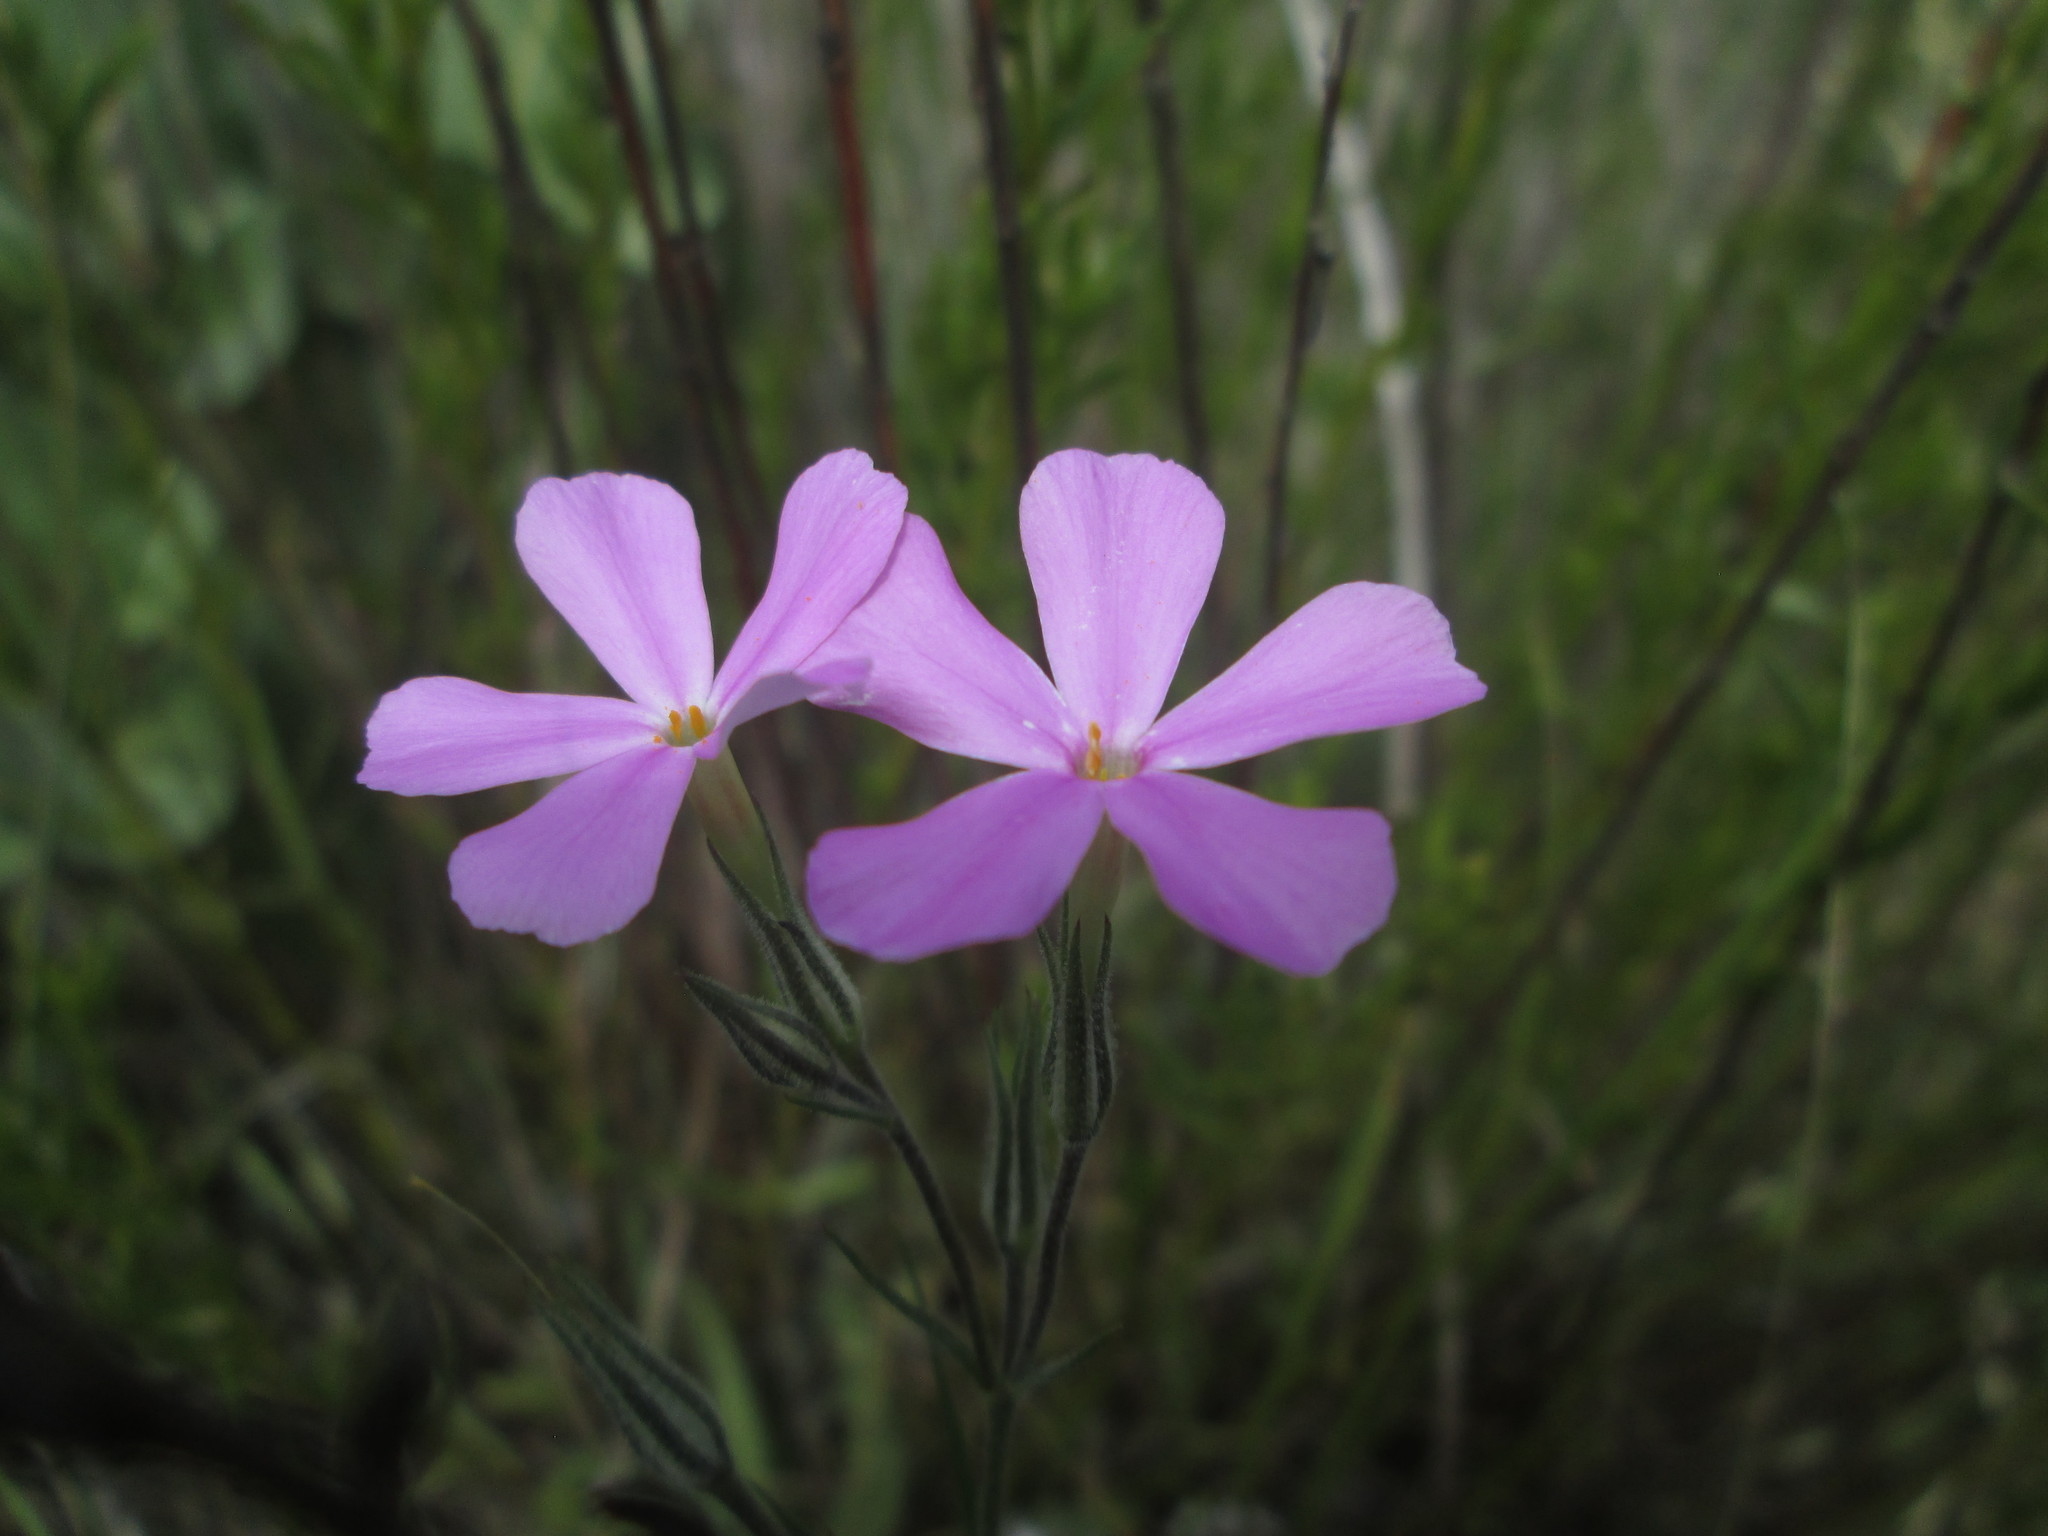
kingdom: Plantae
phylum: Tracheophyta
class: Magnoliopsida
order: Ericales
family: Polemoniaceae
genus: Phlox
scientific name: Phlox longifolia
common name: Longleaf phlox
